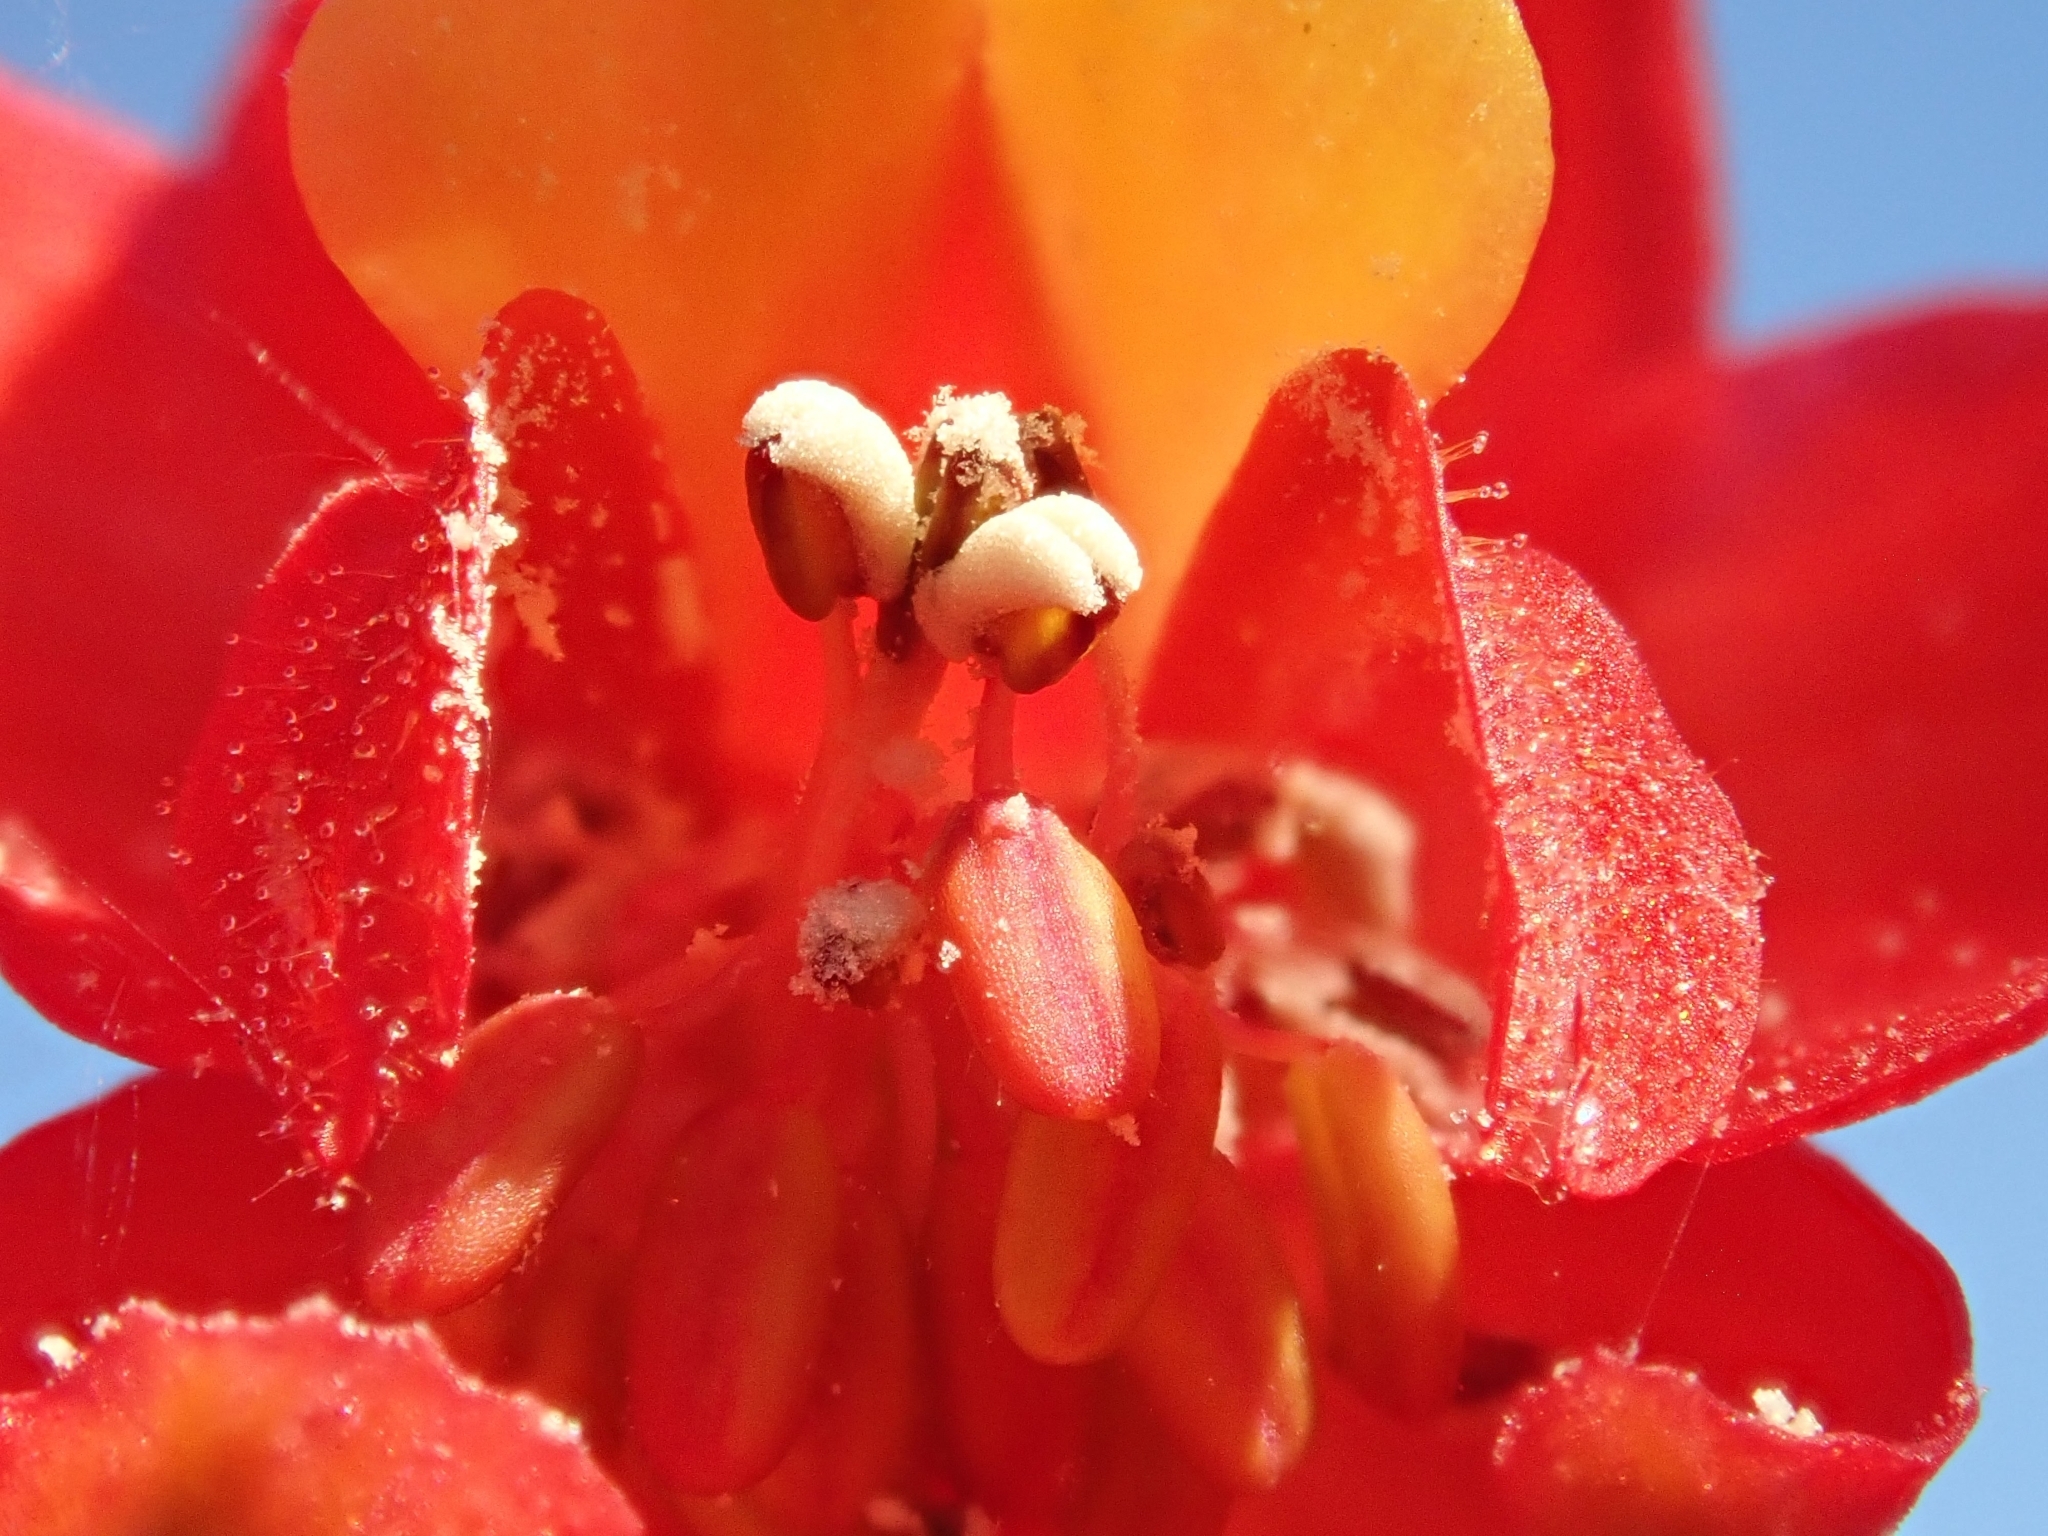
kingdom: Plantae
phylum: Tracheophyta
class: Magnoliopsida
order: Ranunculales
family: Ranunculaceae
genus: Delphinium
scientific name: Delphinium cardinale
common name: Scarlet larkspur
